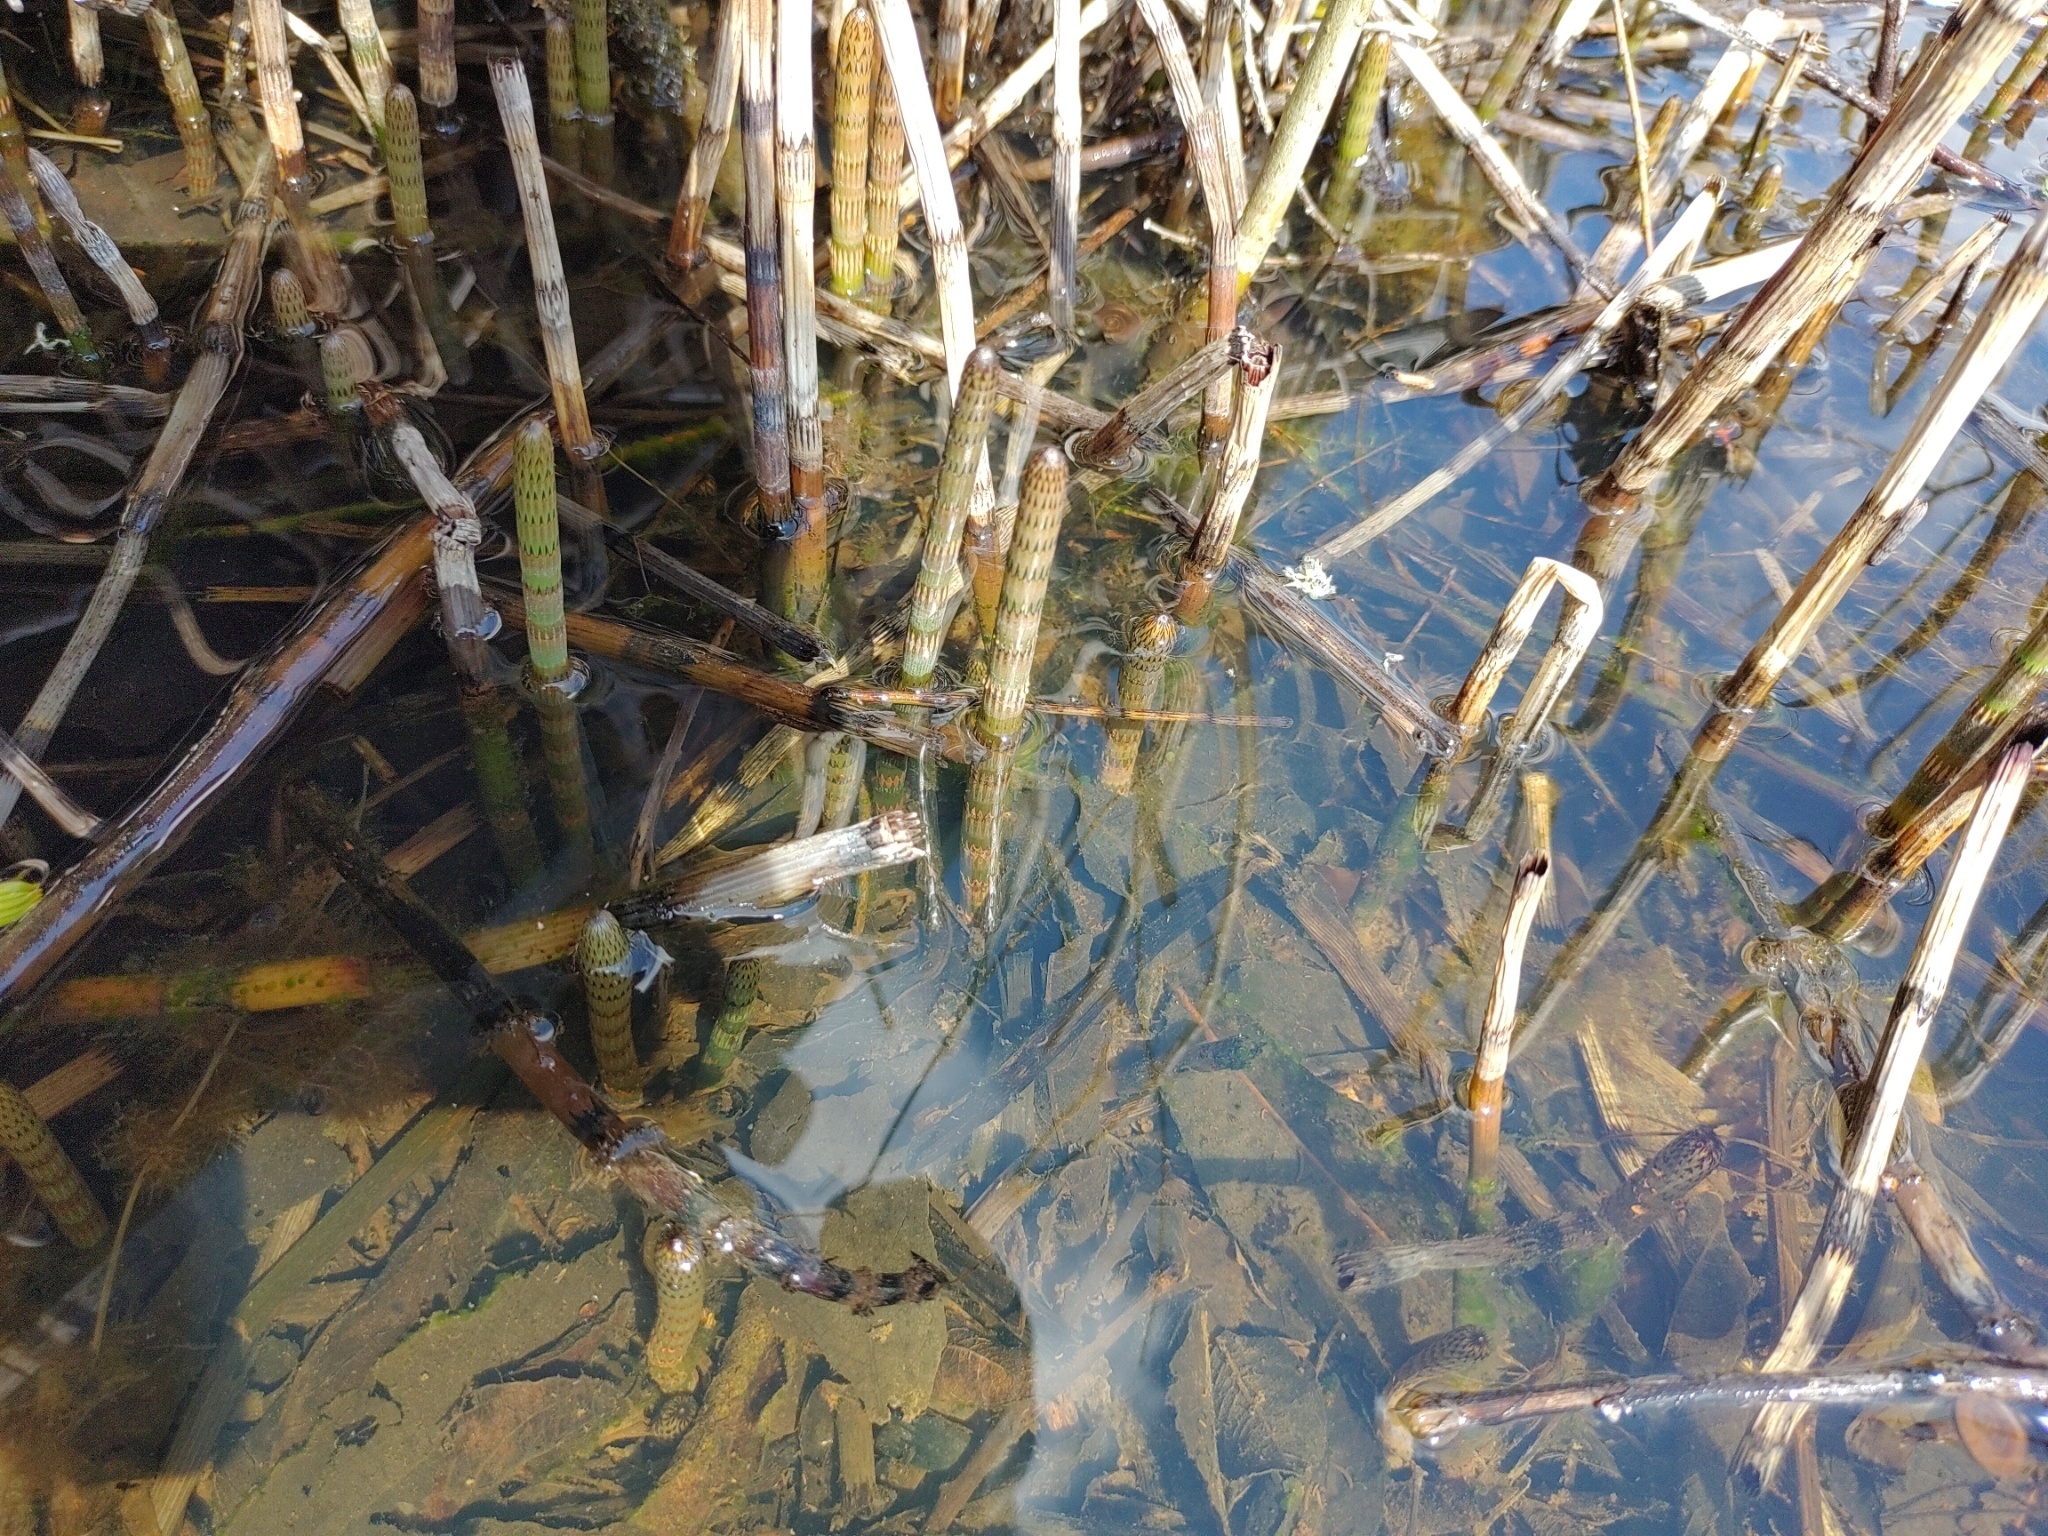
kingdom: Plantae
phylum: Tracheophyta
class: Polypodiopsida
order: Equisetales
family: Equisetaceae
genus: Equisetum
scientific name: Equisetum fluviatile
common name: Water horsetail
